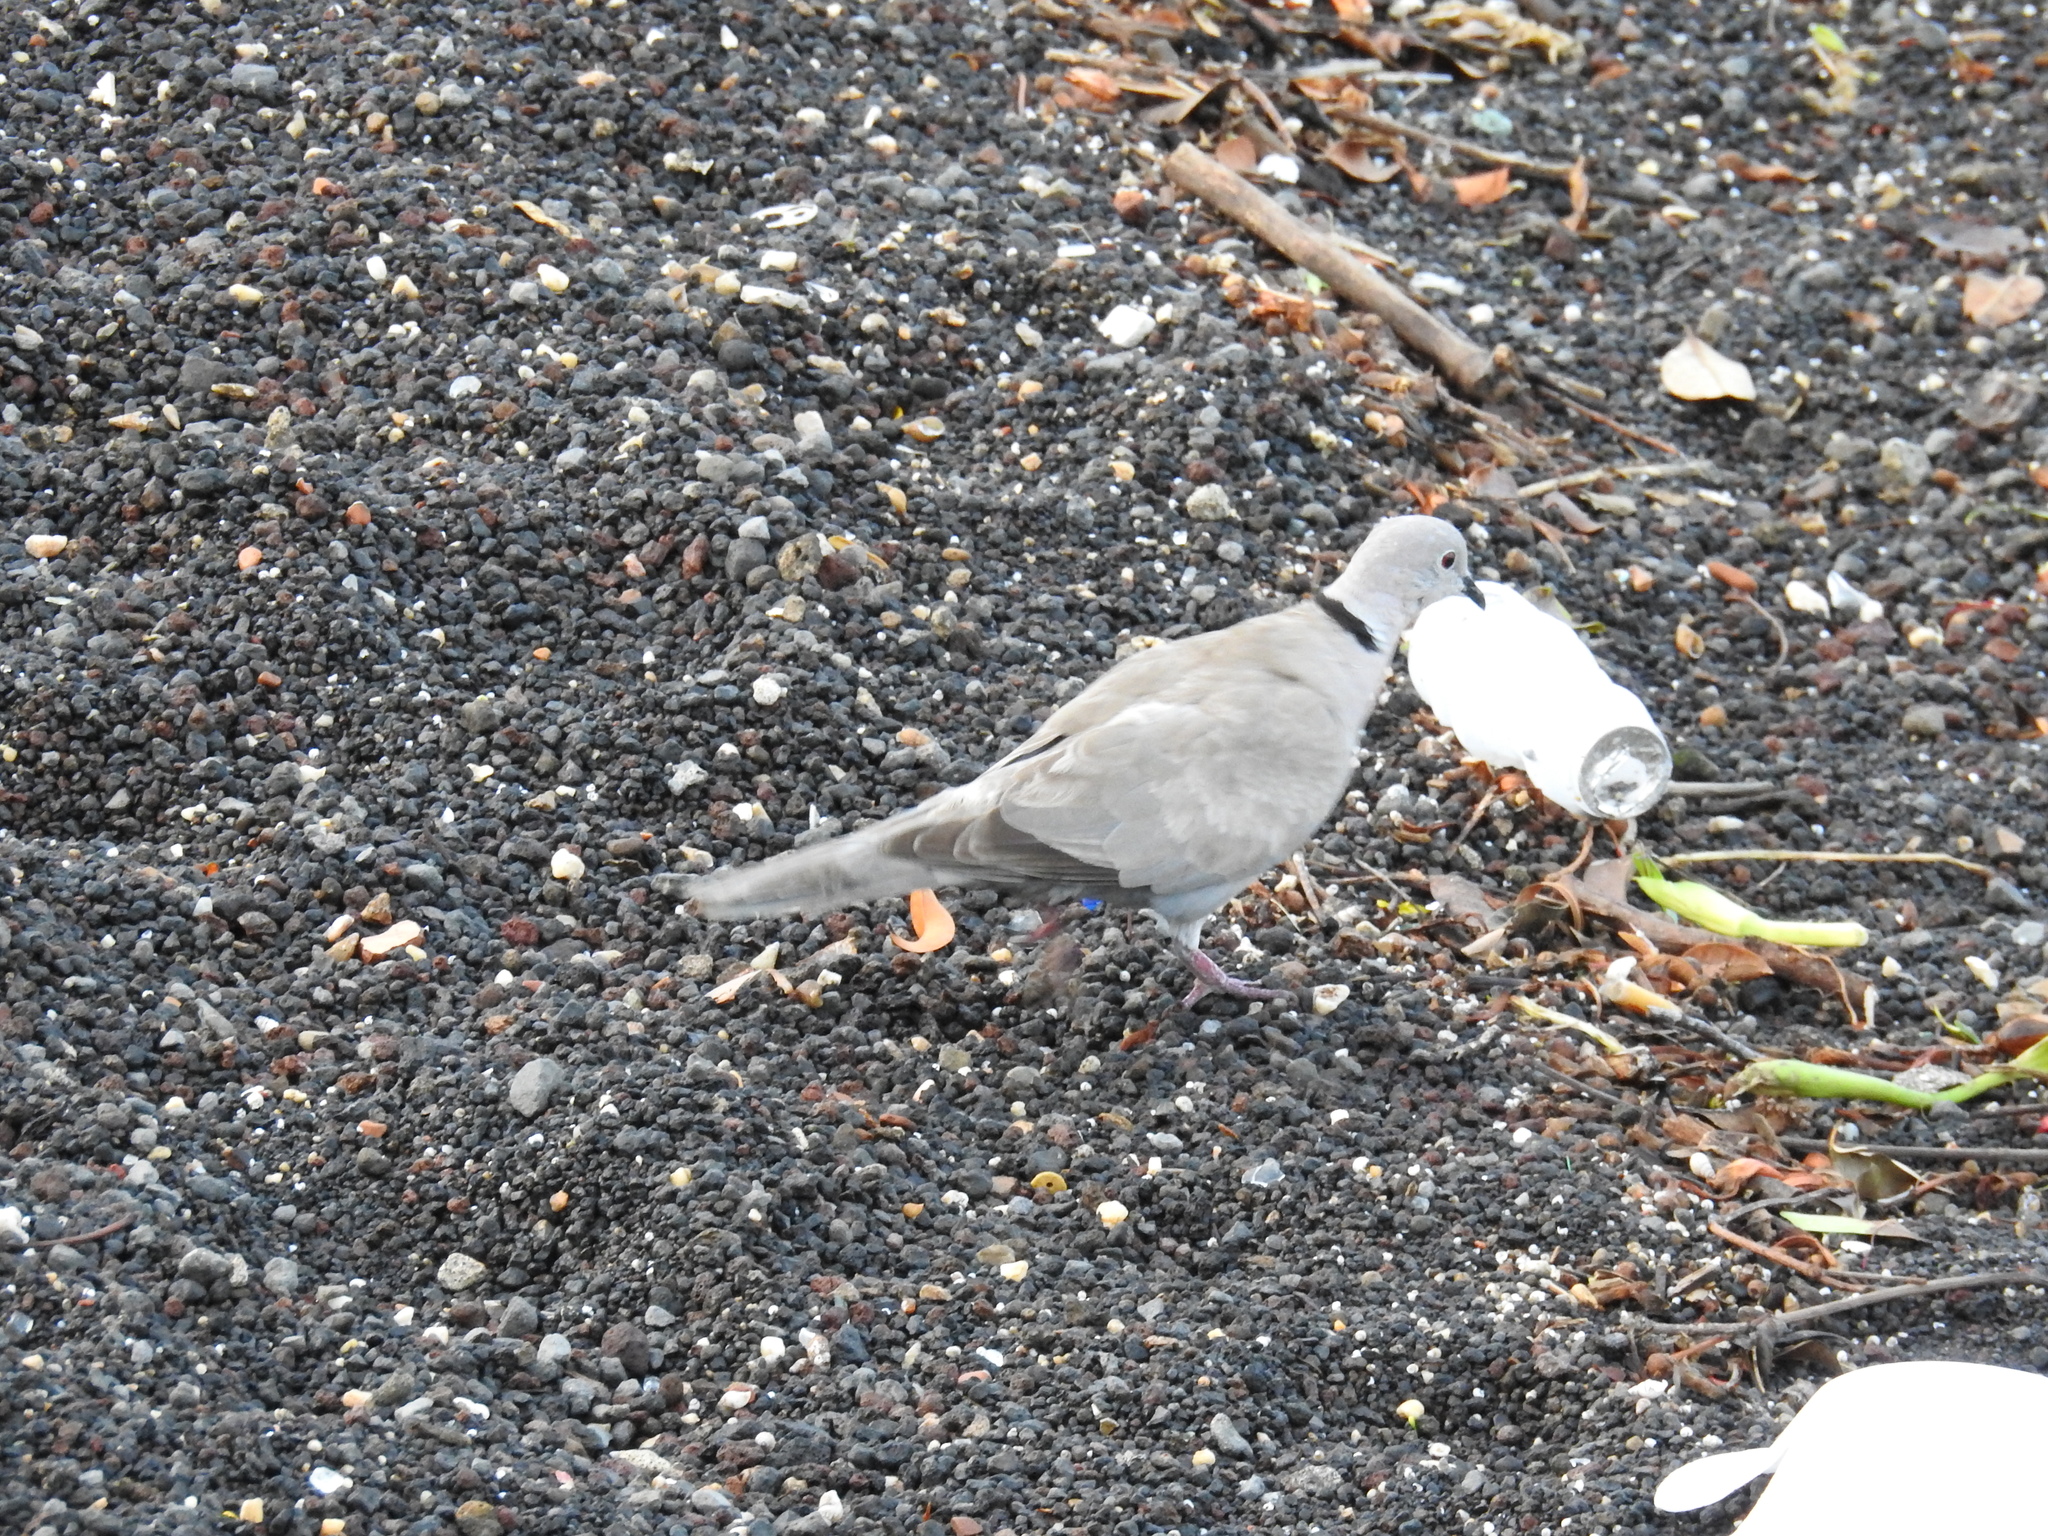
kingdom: Animalia
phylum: Chordata
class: Aves
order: Columbiformes
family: Columbidae
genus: Streptopelia
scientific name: Streptopelia decaocto
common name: Eurasian collared dove
